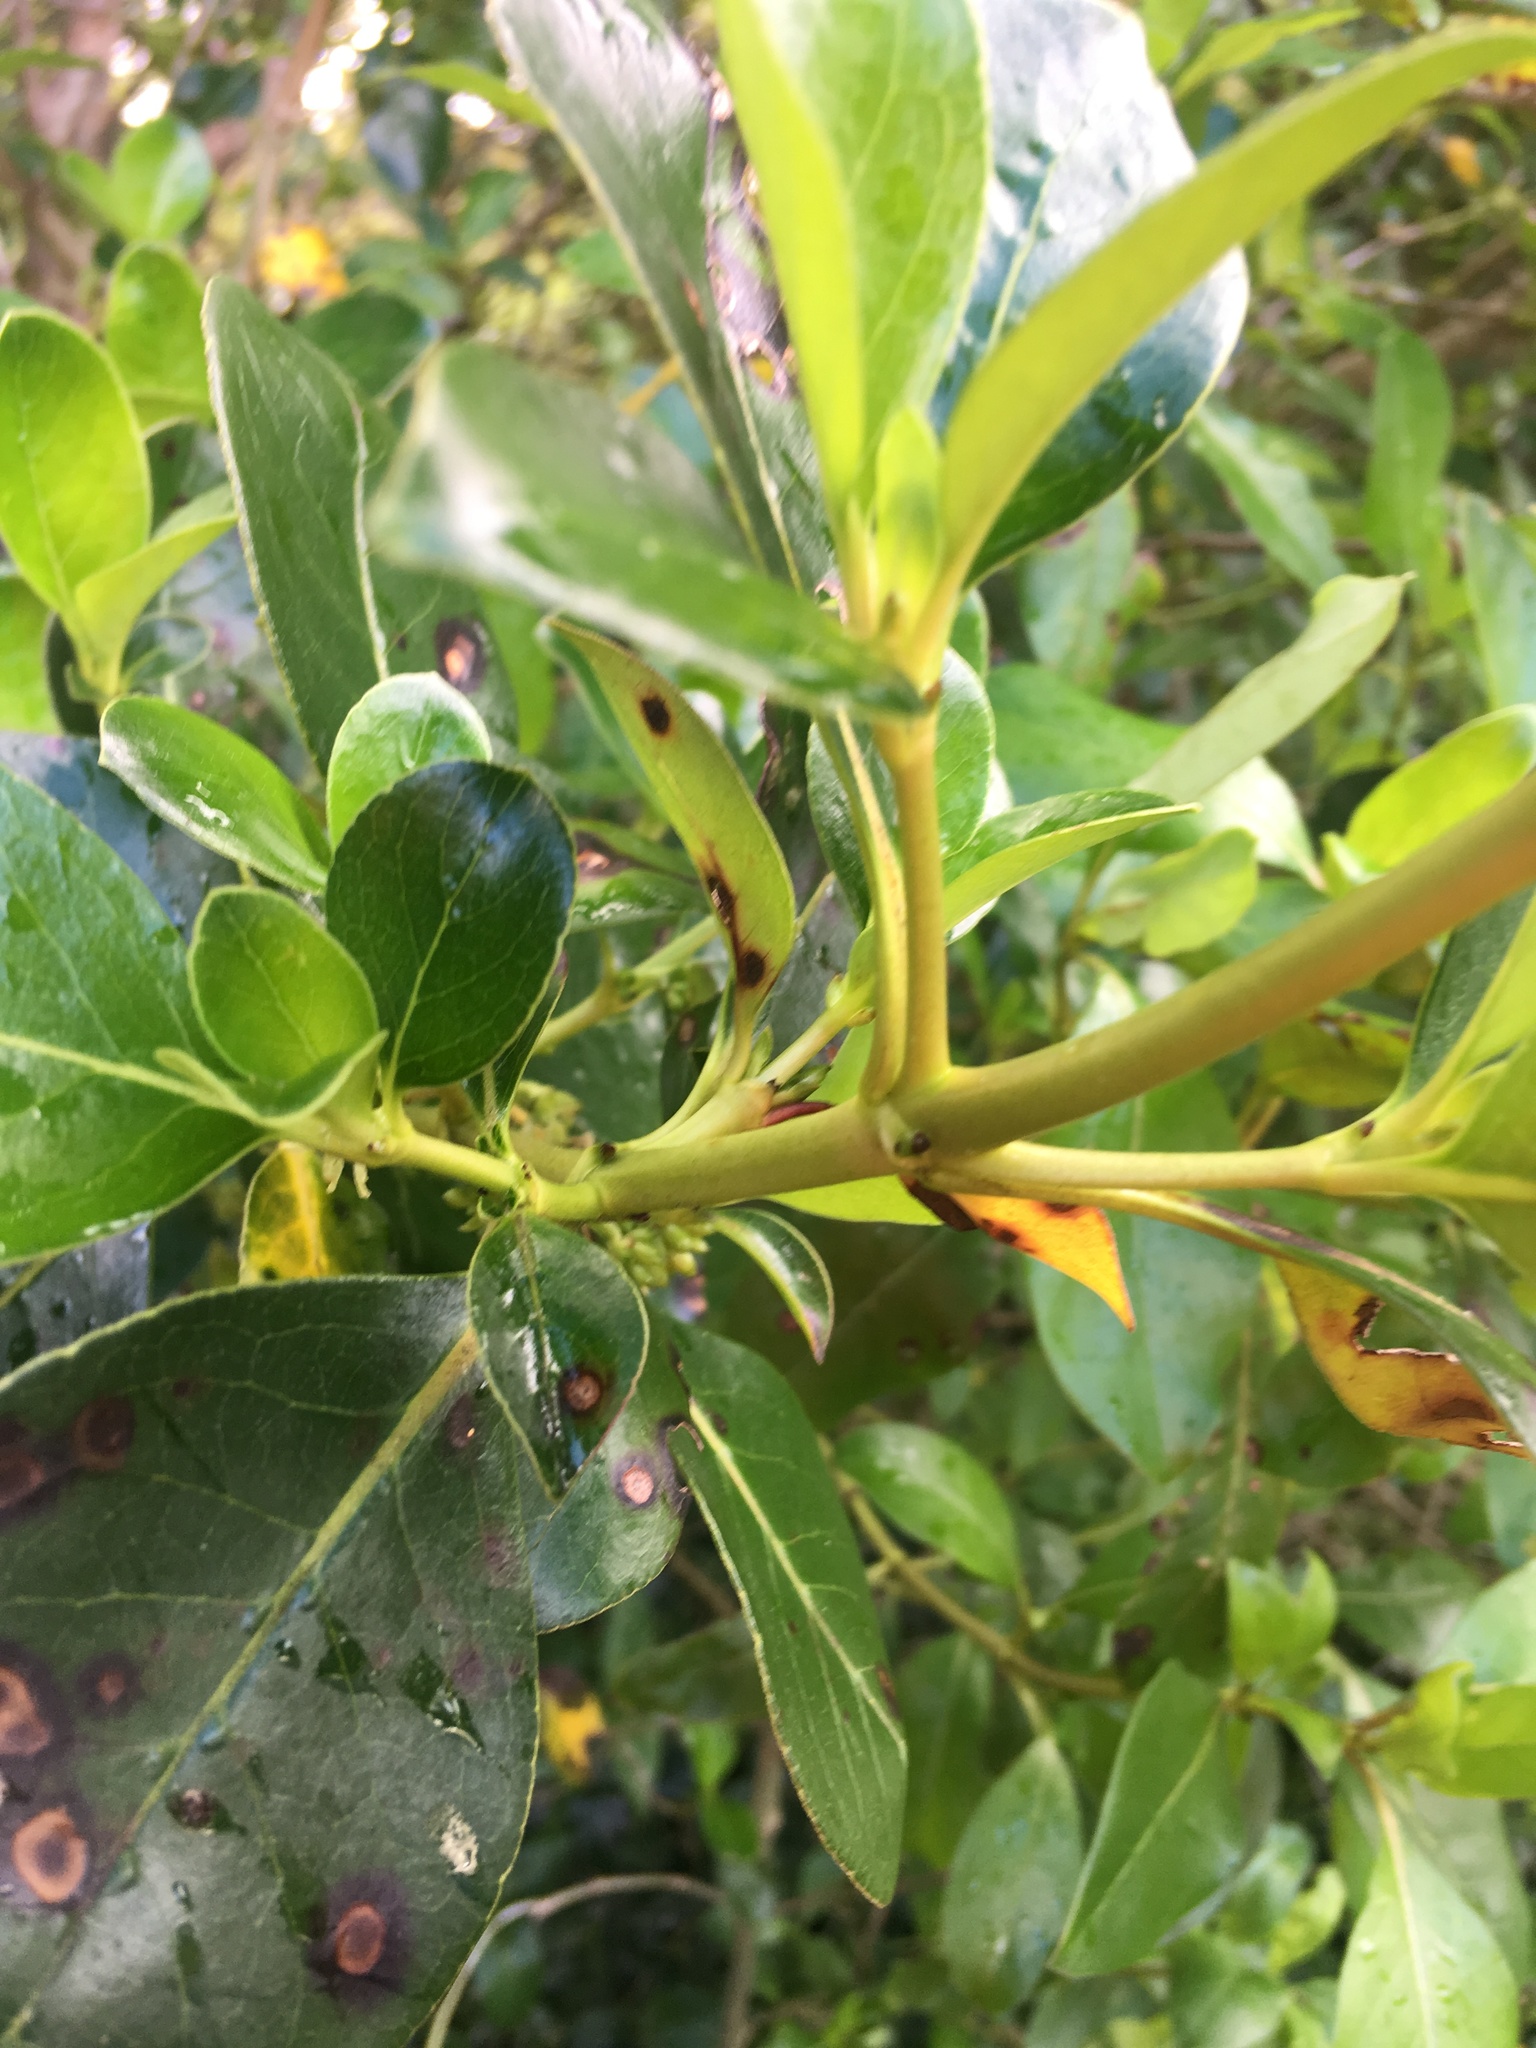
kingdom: Plantae
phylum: Tracheophyta
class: Magnoliopsida
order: Gentianales
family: Rubiaceae
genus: Coprosma
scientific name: Coprosma robusta
